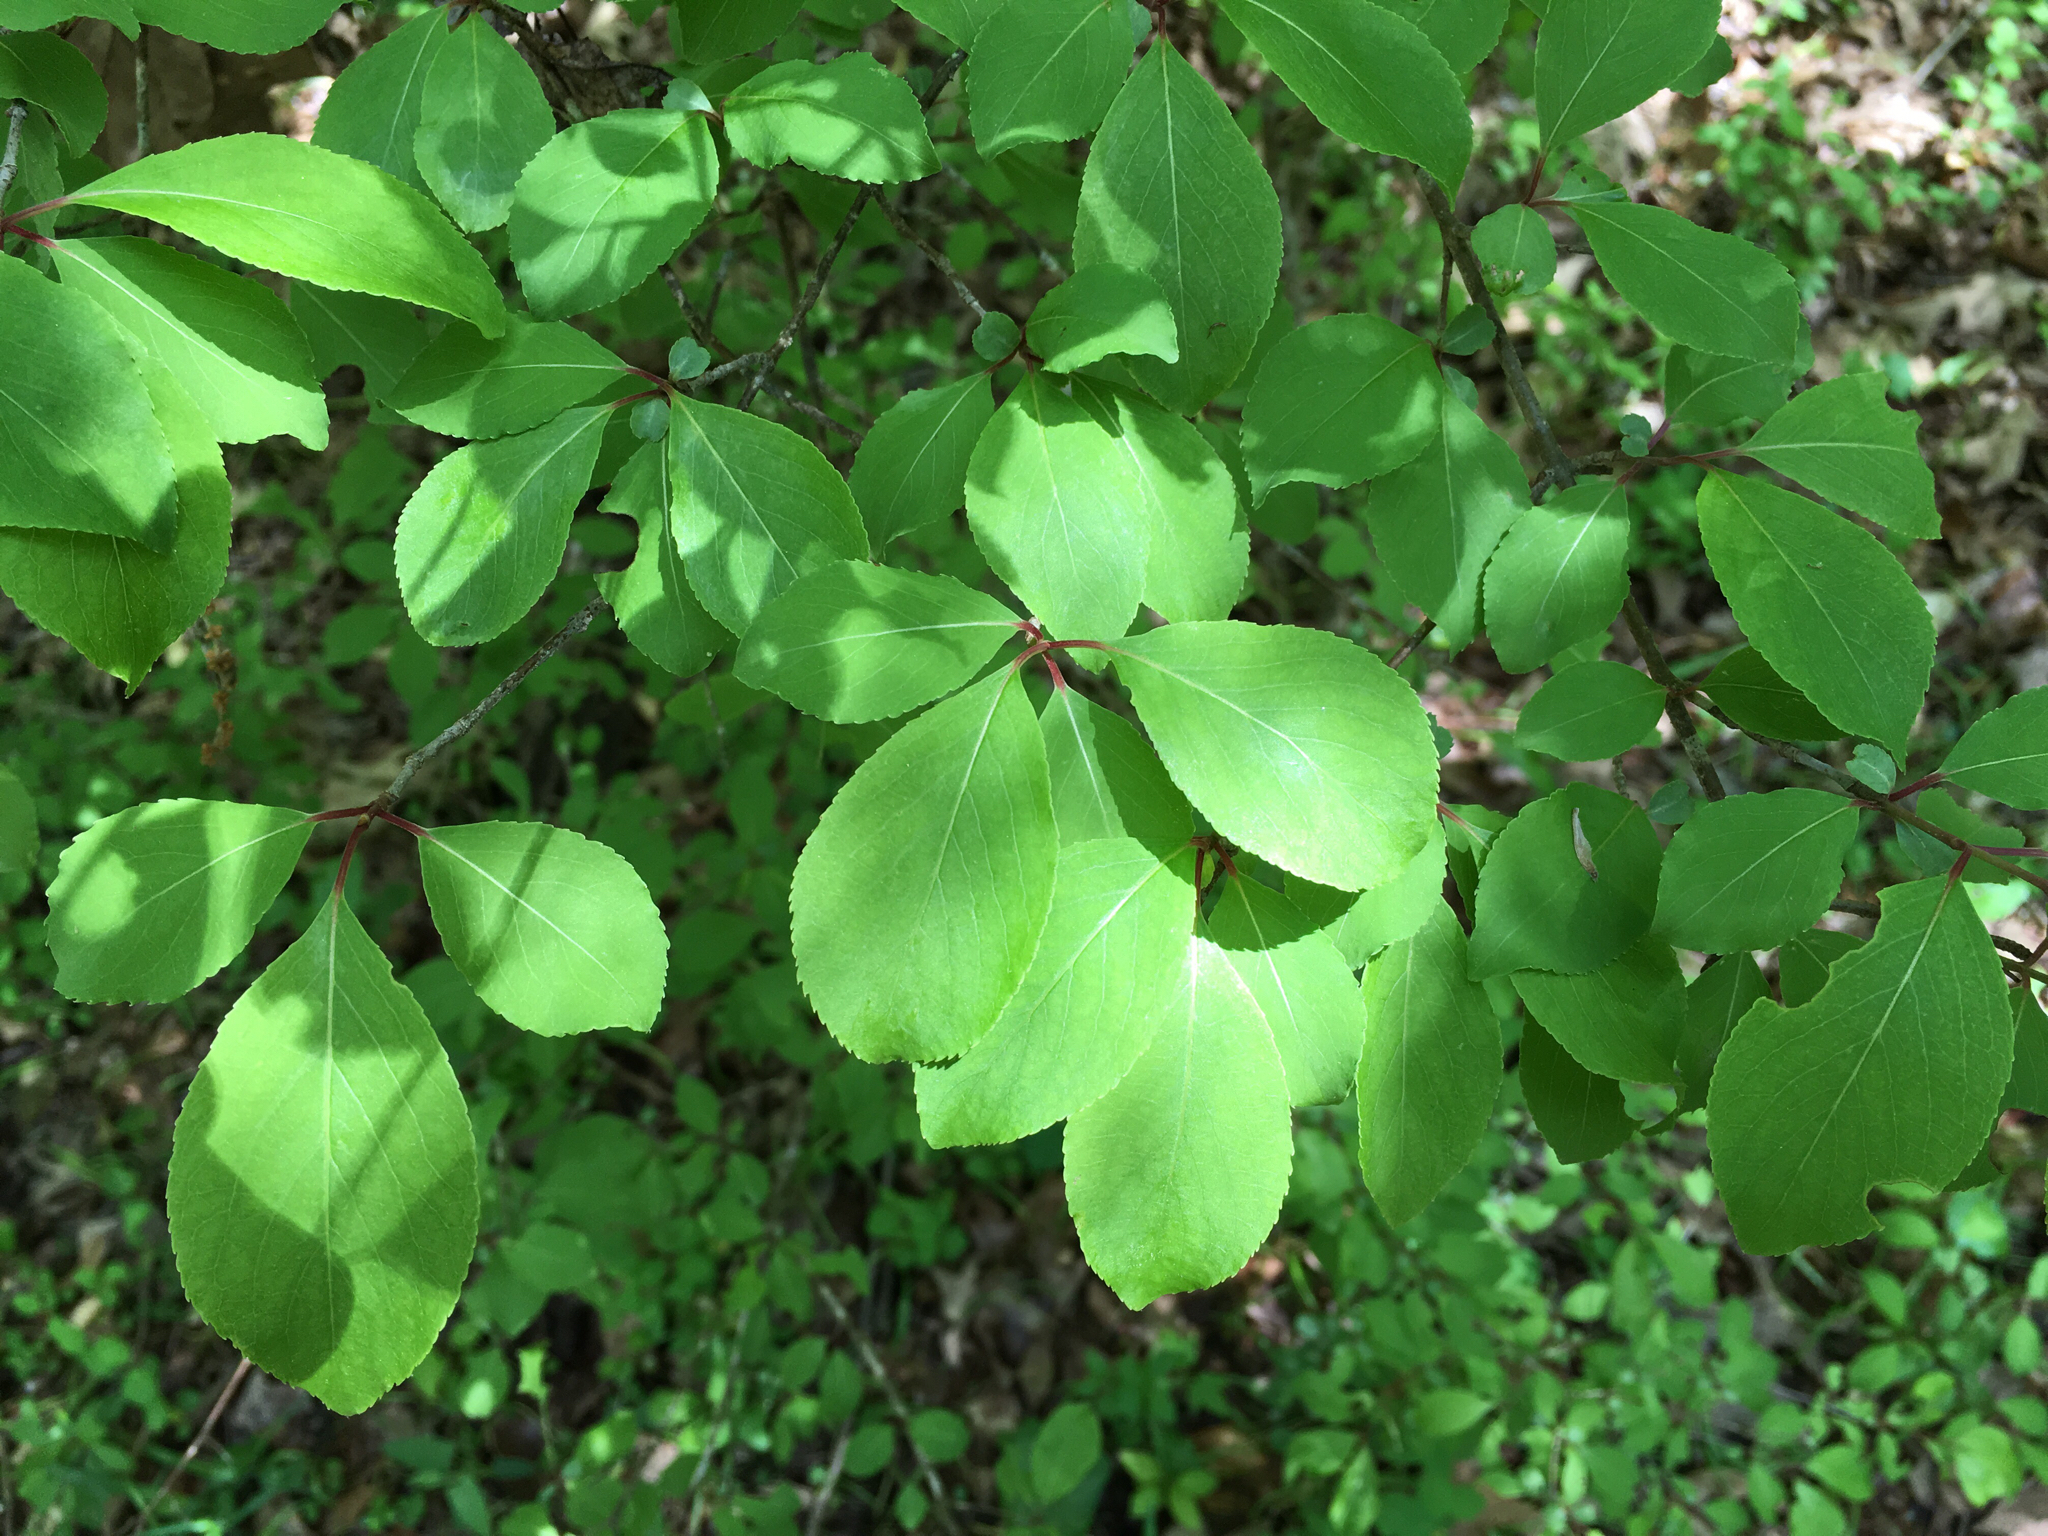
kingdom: Plantae
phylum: Tracheophyta
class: Magnoliopsida
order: Dipsacales
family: Viburnaceae
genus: Viburnum
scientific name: Viburnum prunifolium
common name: Black haw
